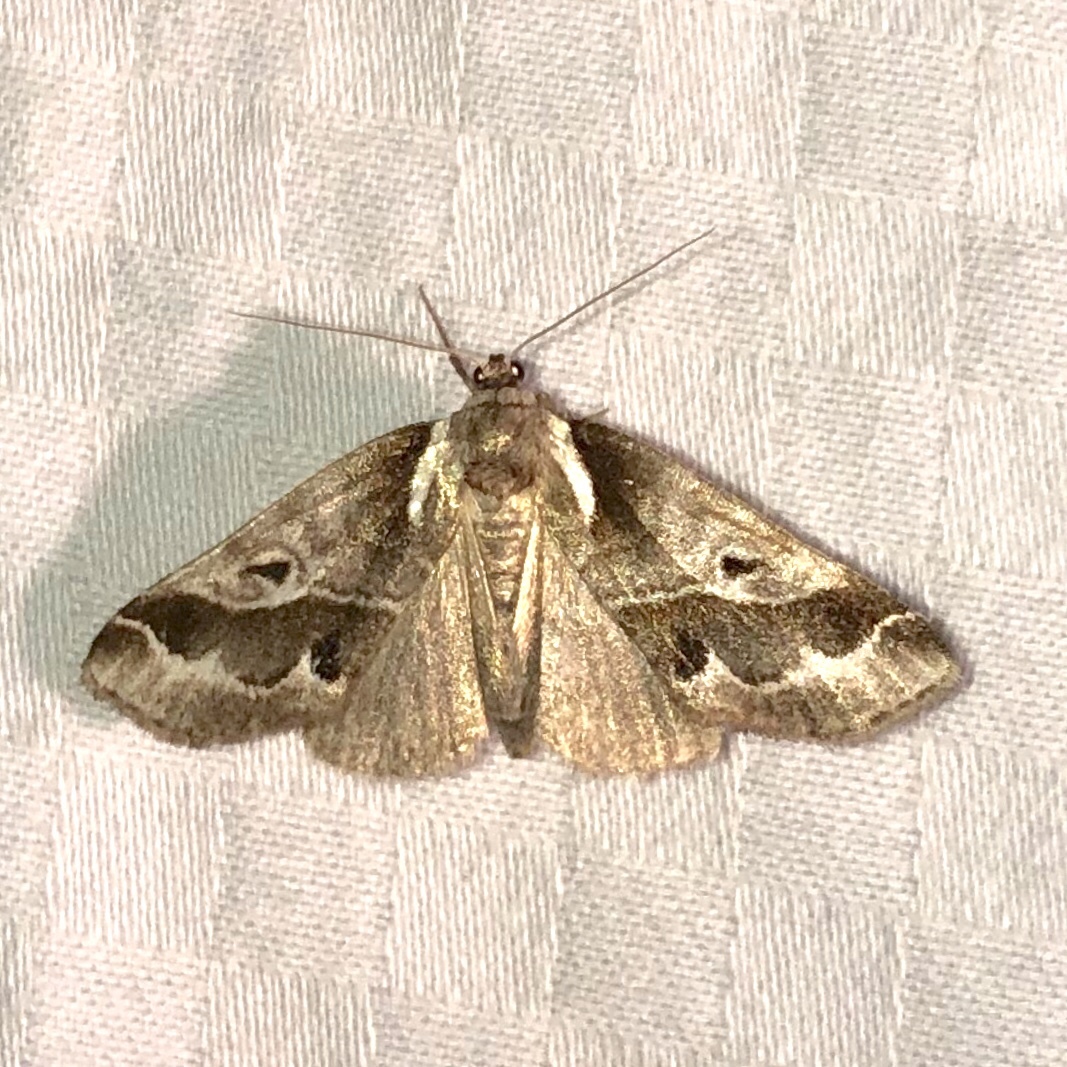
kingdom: Animalia
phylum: Arthropoda
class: Insecta
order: Lepidoptera
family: Nolidae
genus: Baileya
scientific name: Baileya doubledayi
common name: Doubleday's baileya moth
